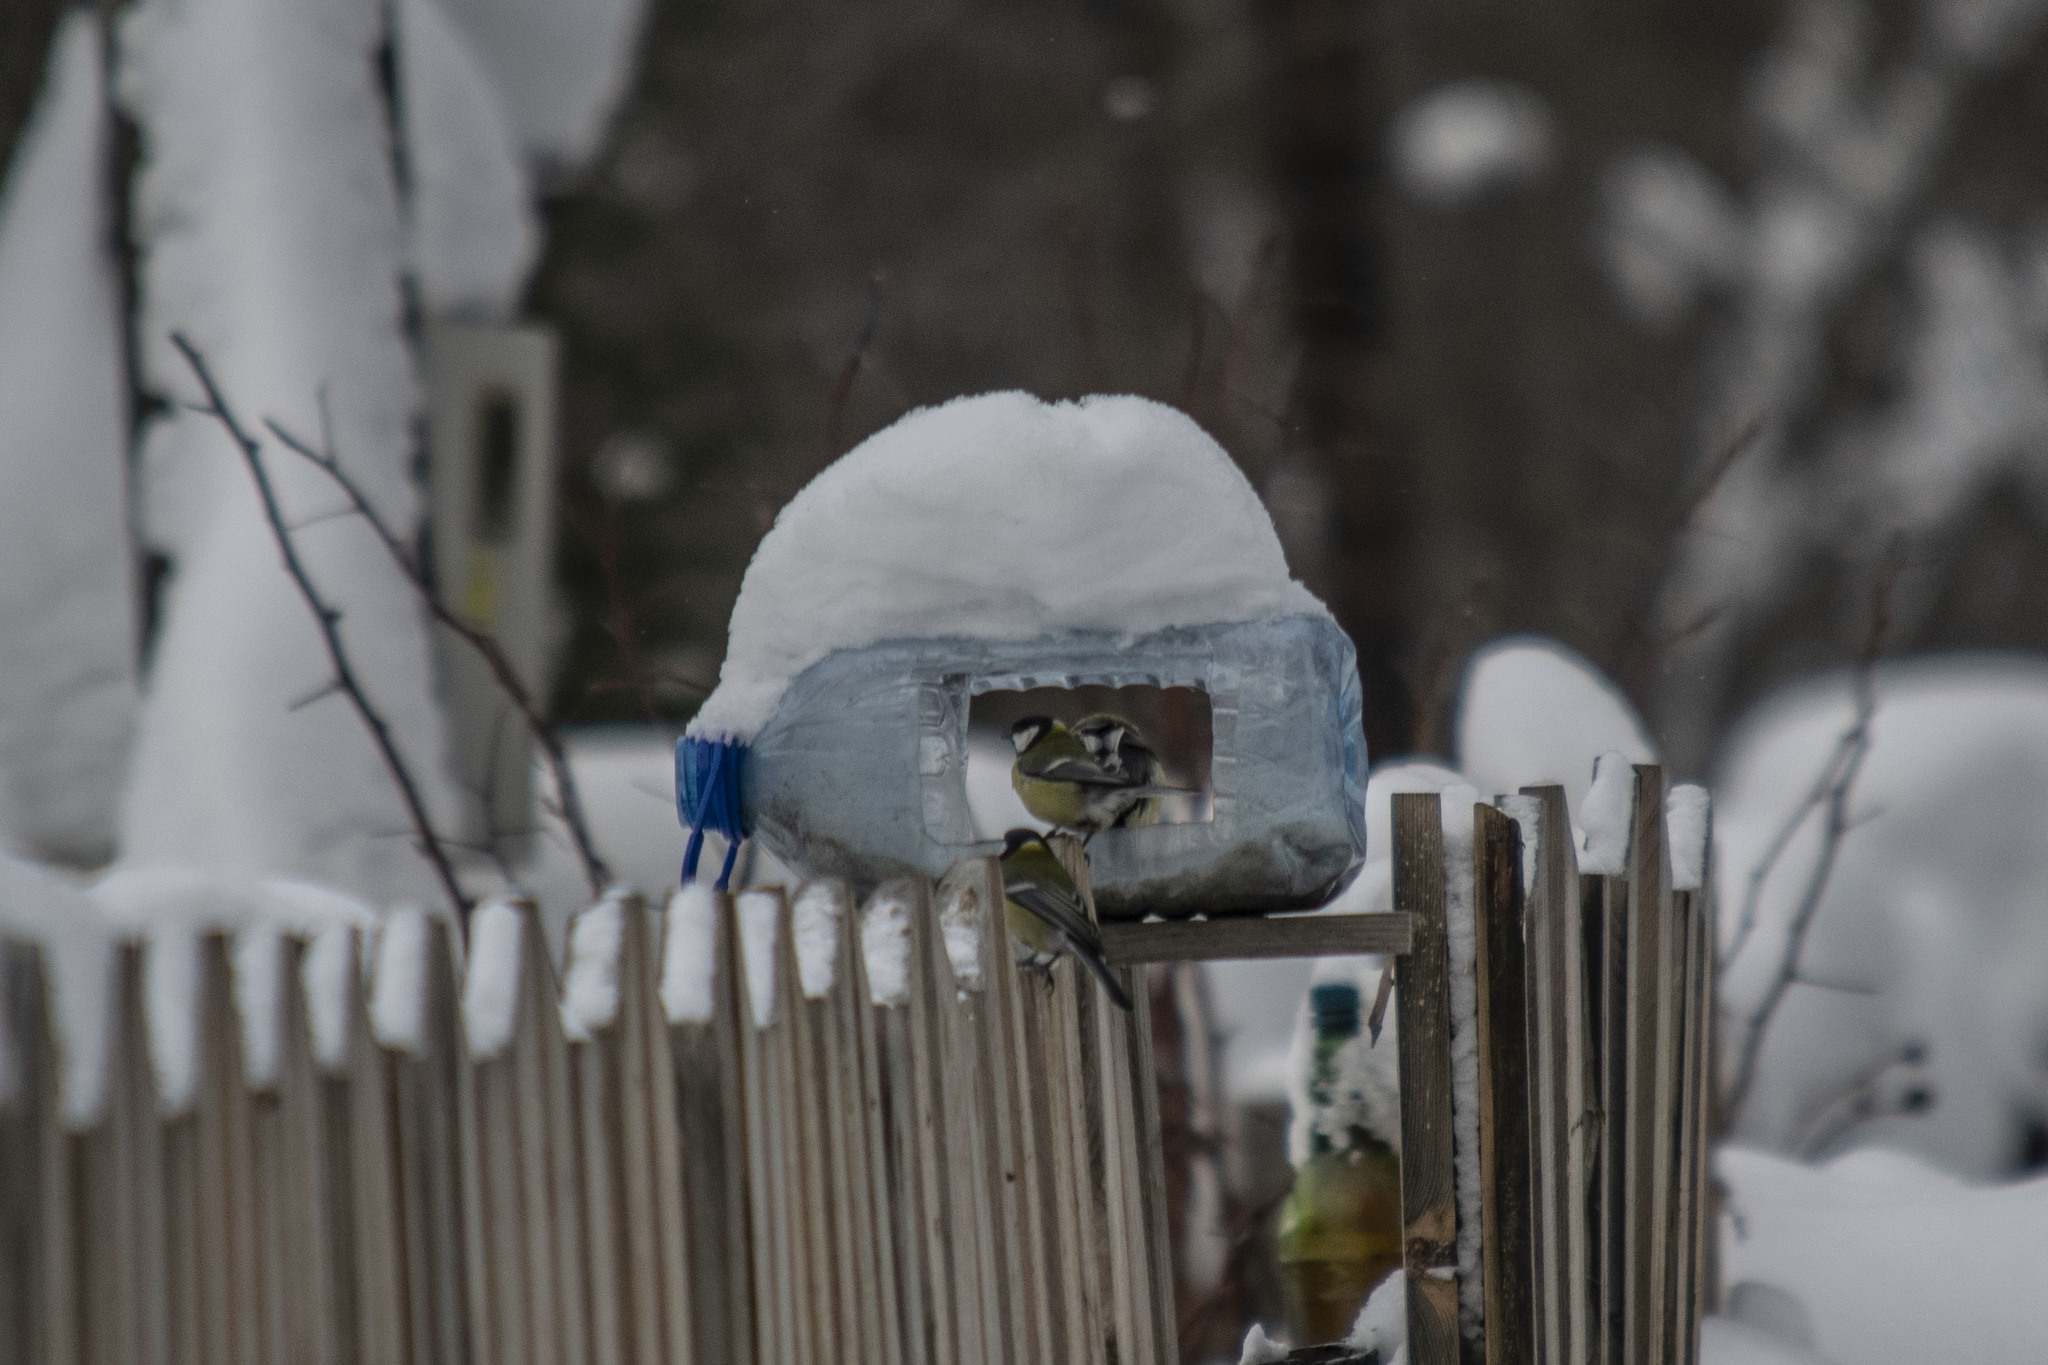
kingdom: Animalia
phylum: Chordata
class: Aves
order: Passeriformes
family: Paridae
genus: Parus
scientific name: Parus major
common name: Great tit
